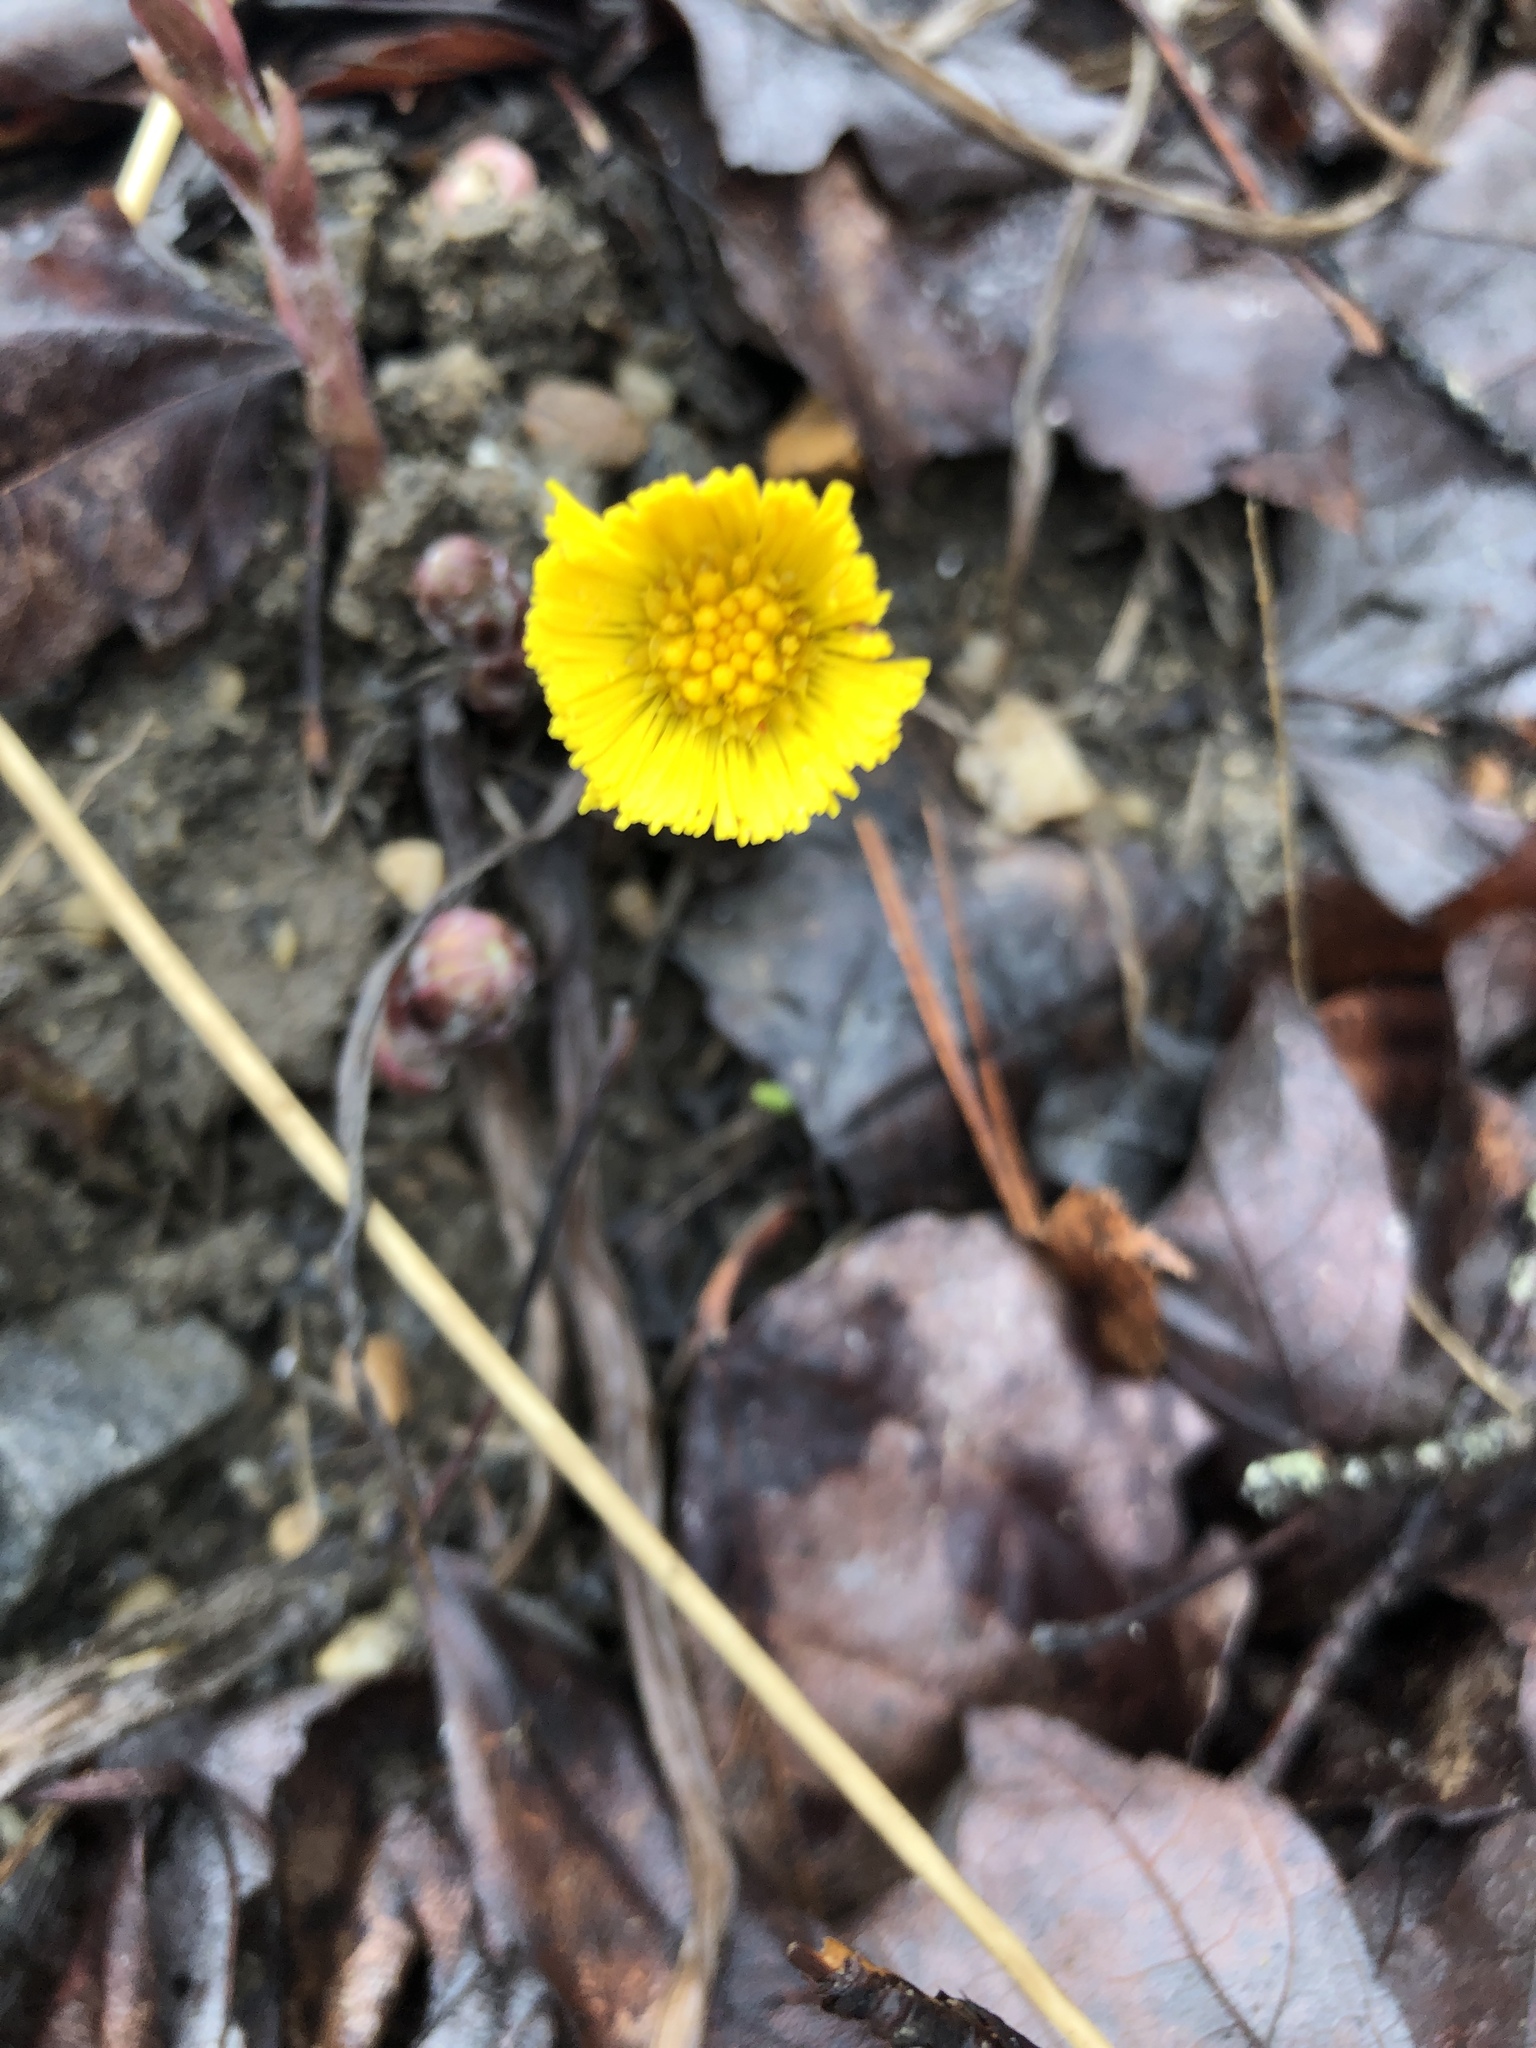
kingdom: Plantae
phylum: Tracheophyta
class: Magnoliopsida
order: Asterales
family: Asteraceae
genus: Tussilago
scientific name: Tussilago farfara
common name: Coltsfoot
